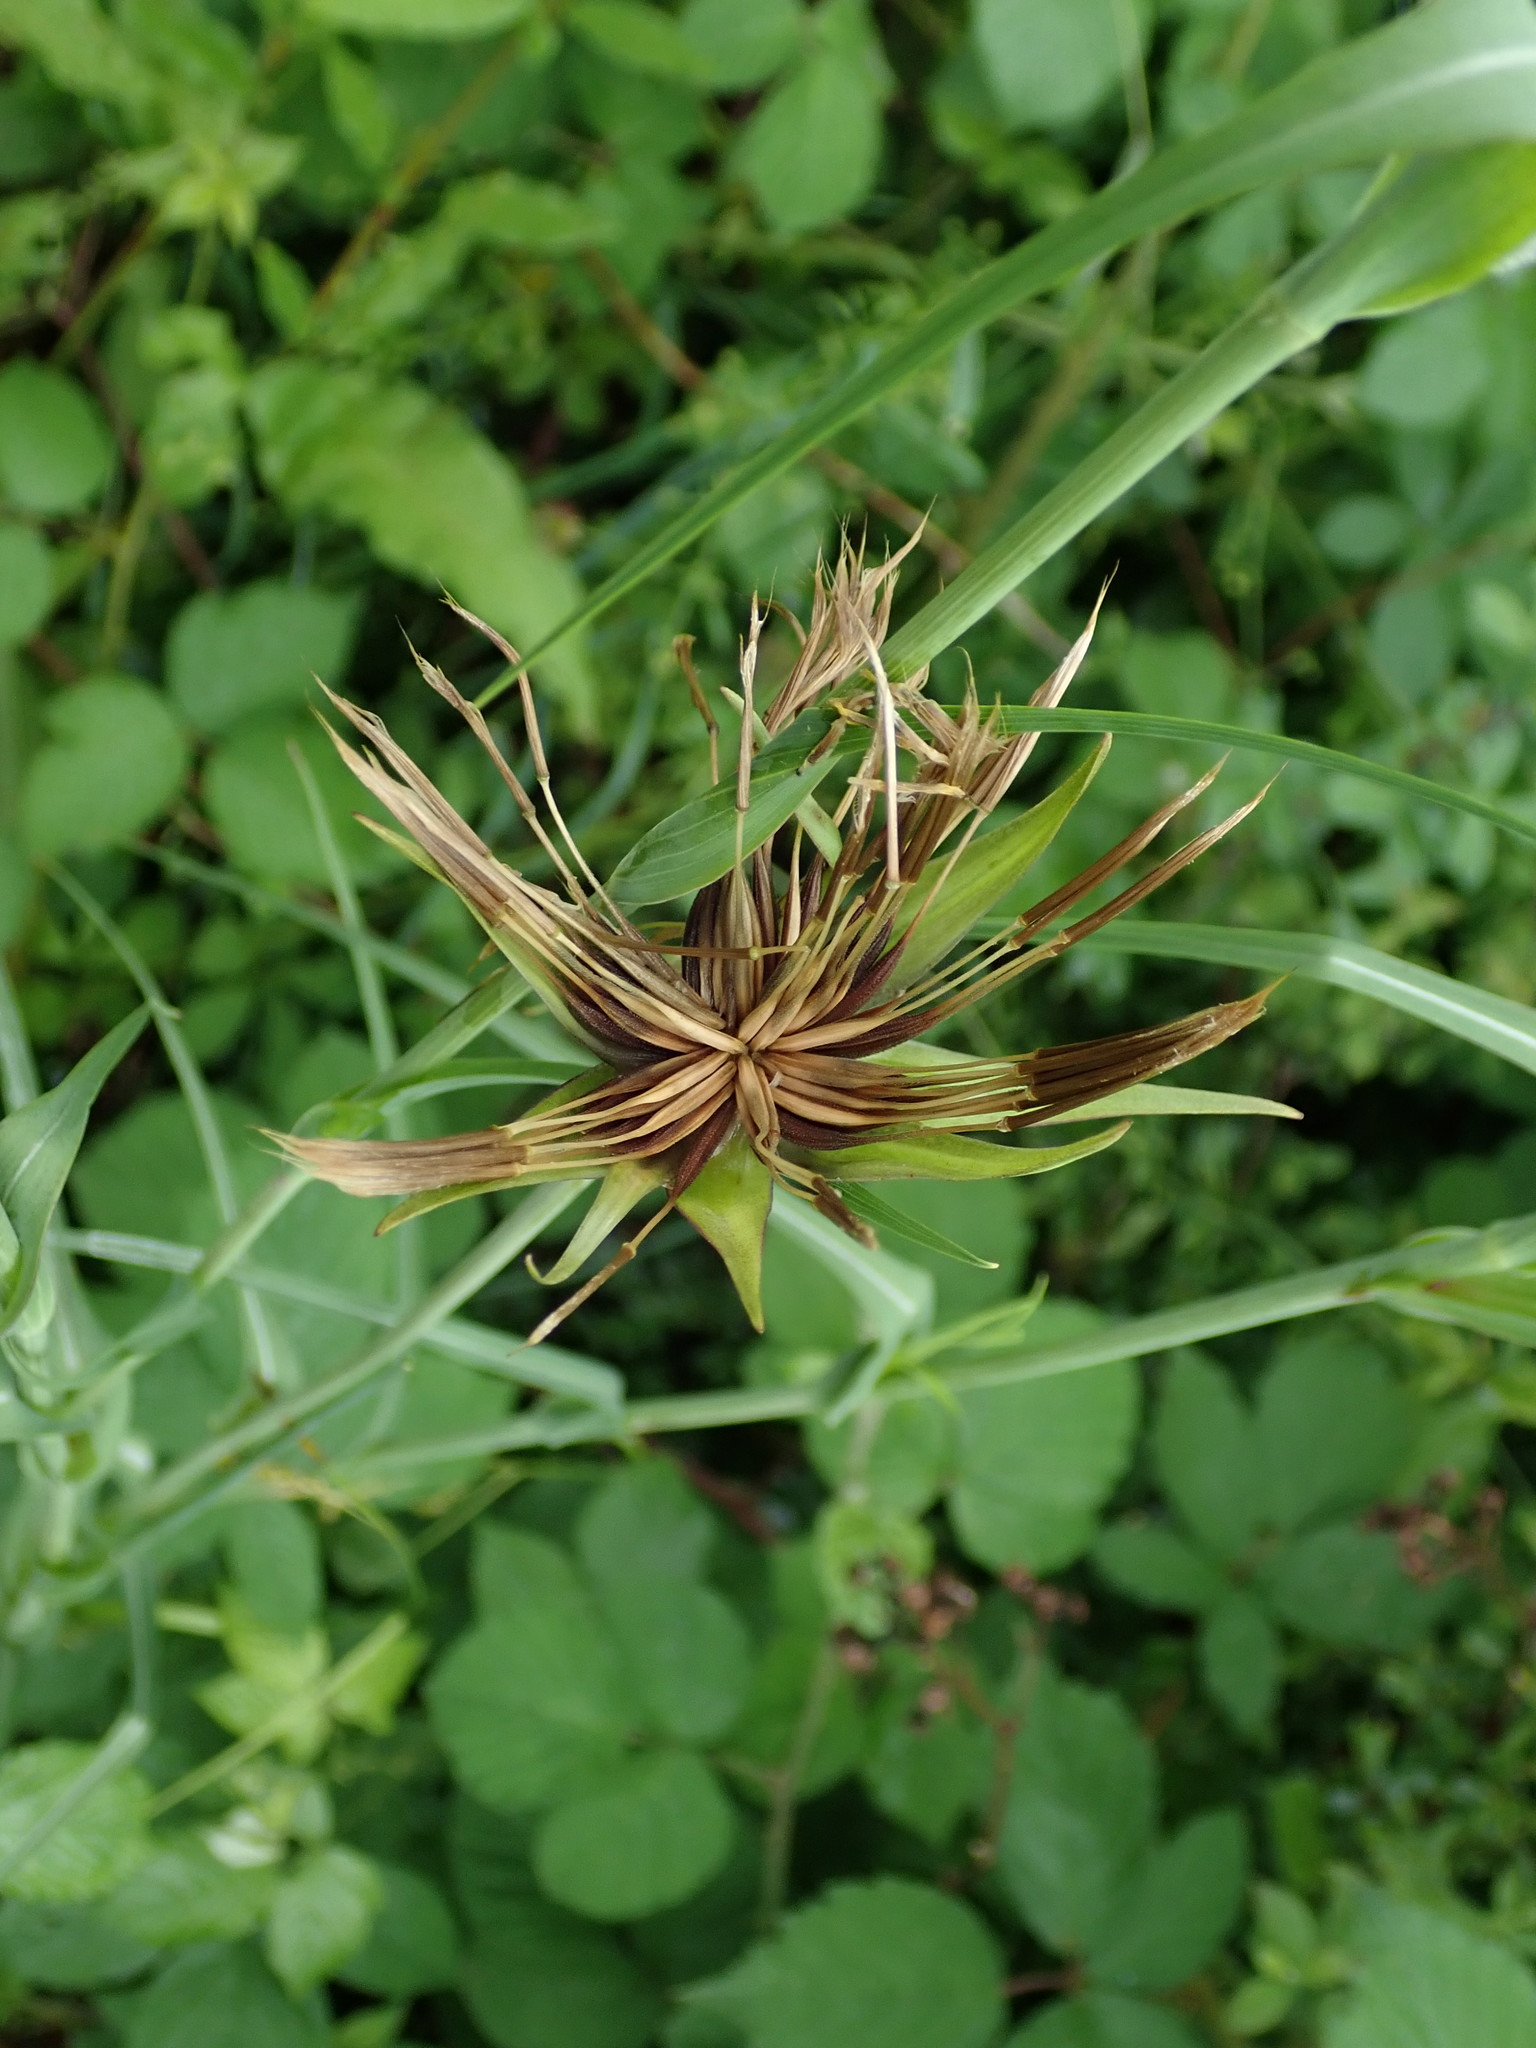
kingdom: Plantae
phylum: Tracheophyta
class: Magnoliopsida
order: Asterales
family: Asteraceae
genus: Tragopogon
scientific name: Tragopogon minor
